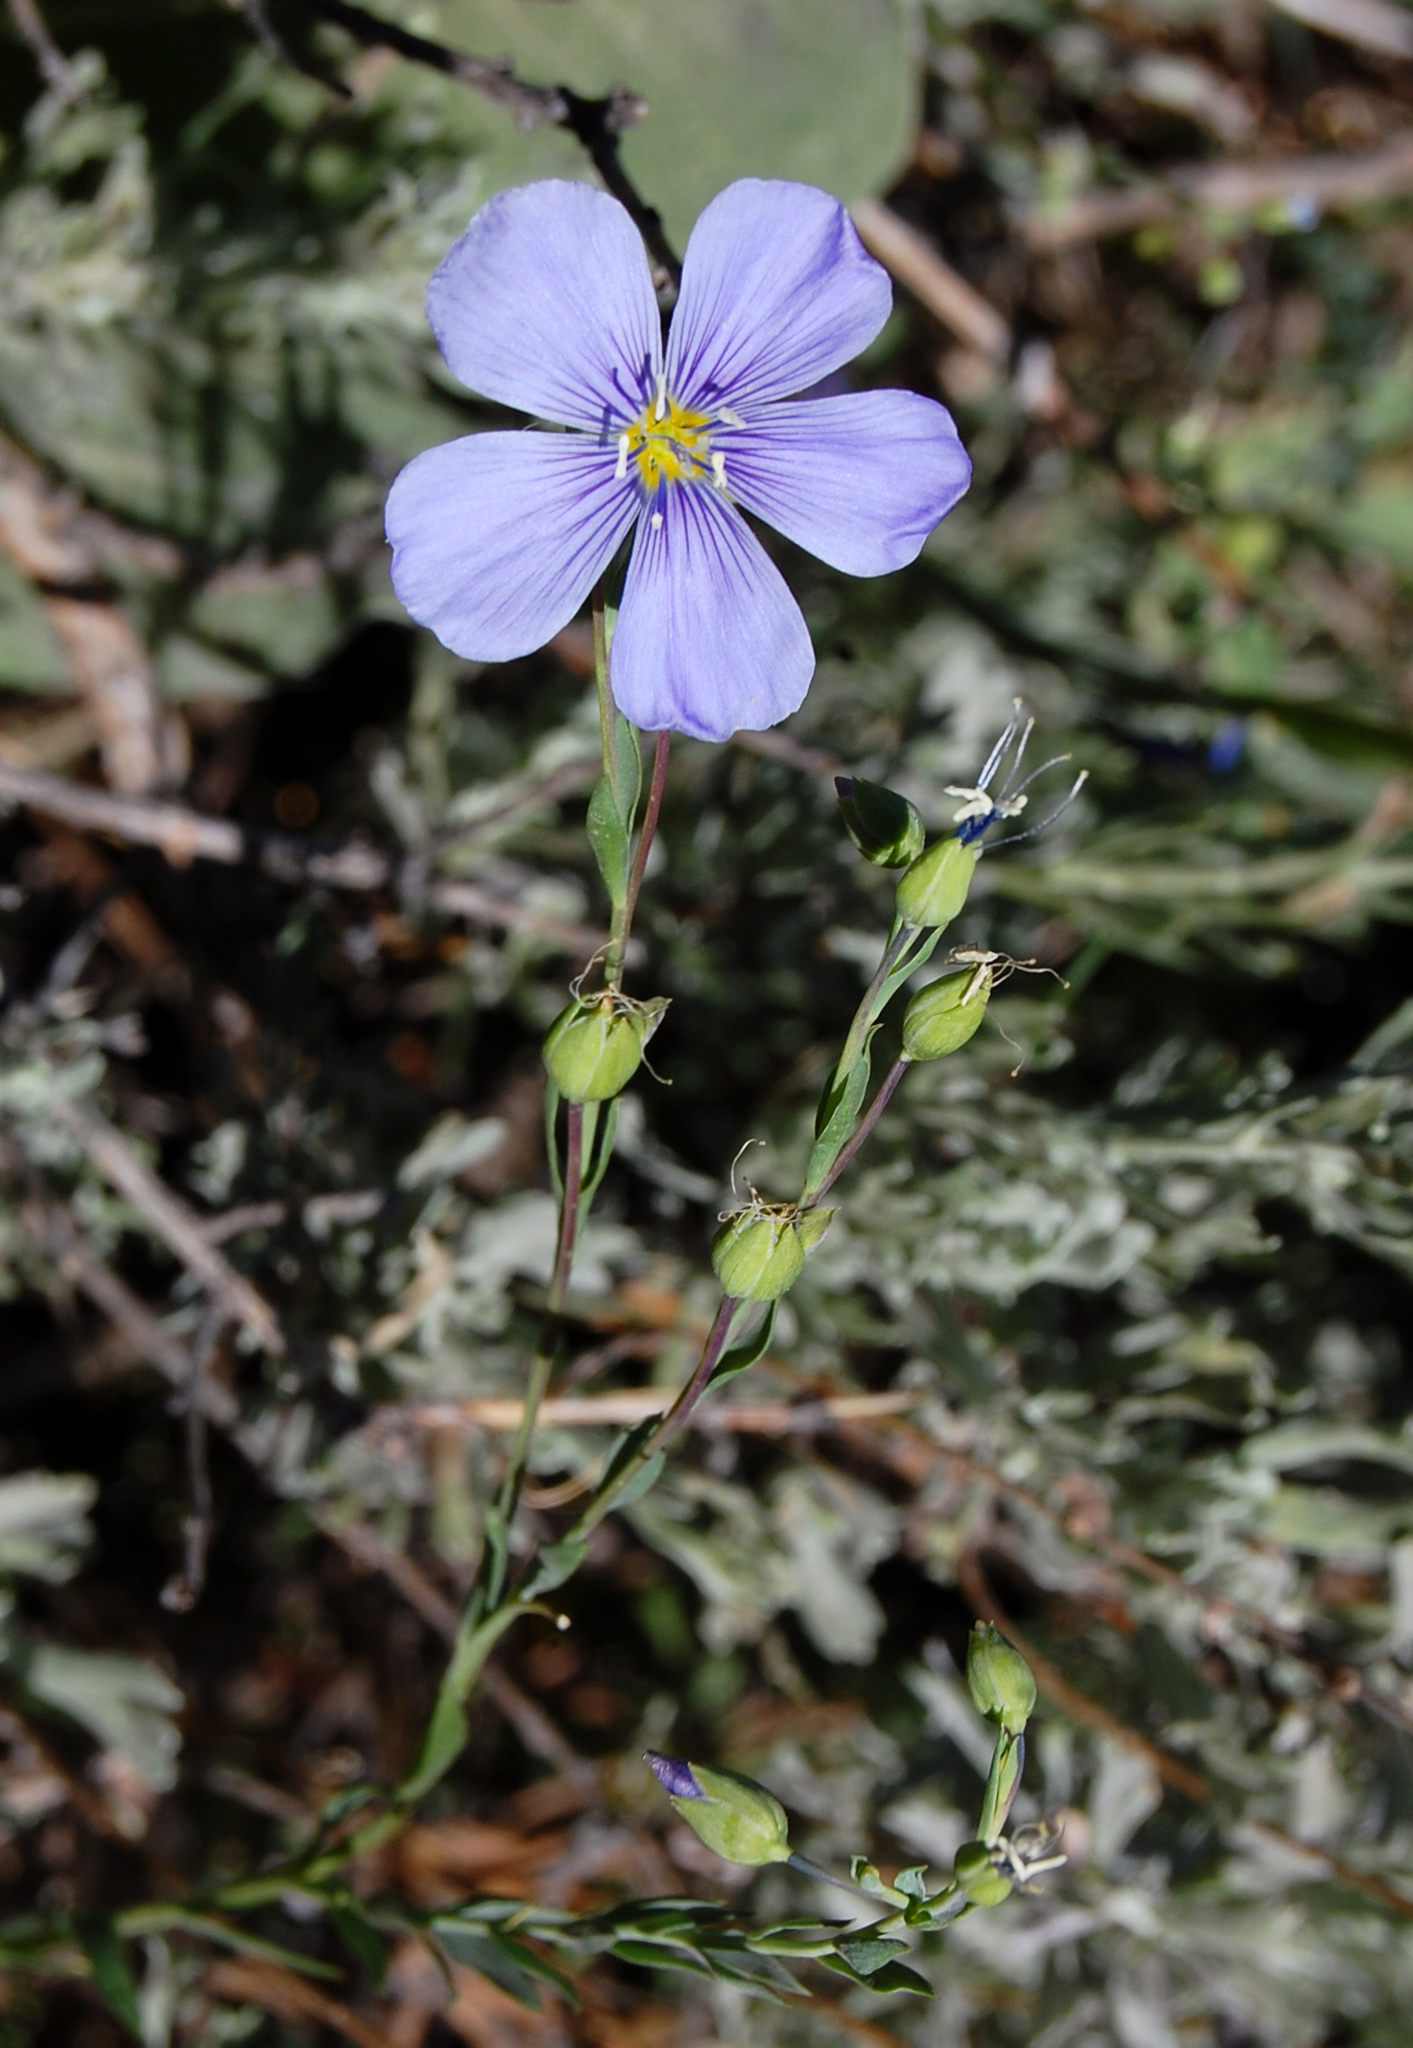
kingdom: Plantae
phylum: Tracheophyta
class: Magnoliopsida
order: Malpighiales
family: Linaceae
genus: Linum
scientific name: Linum lewisii
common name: Prairie flax
